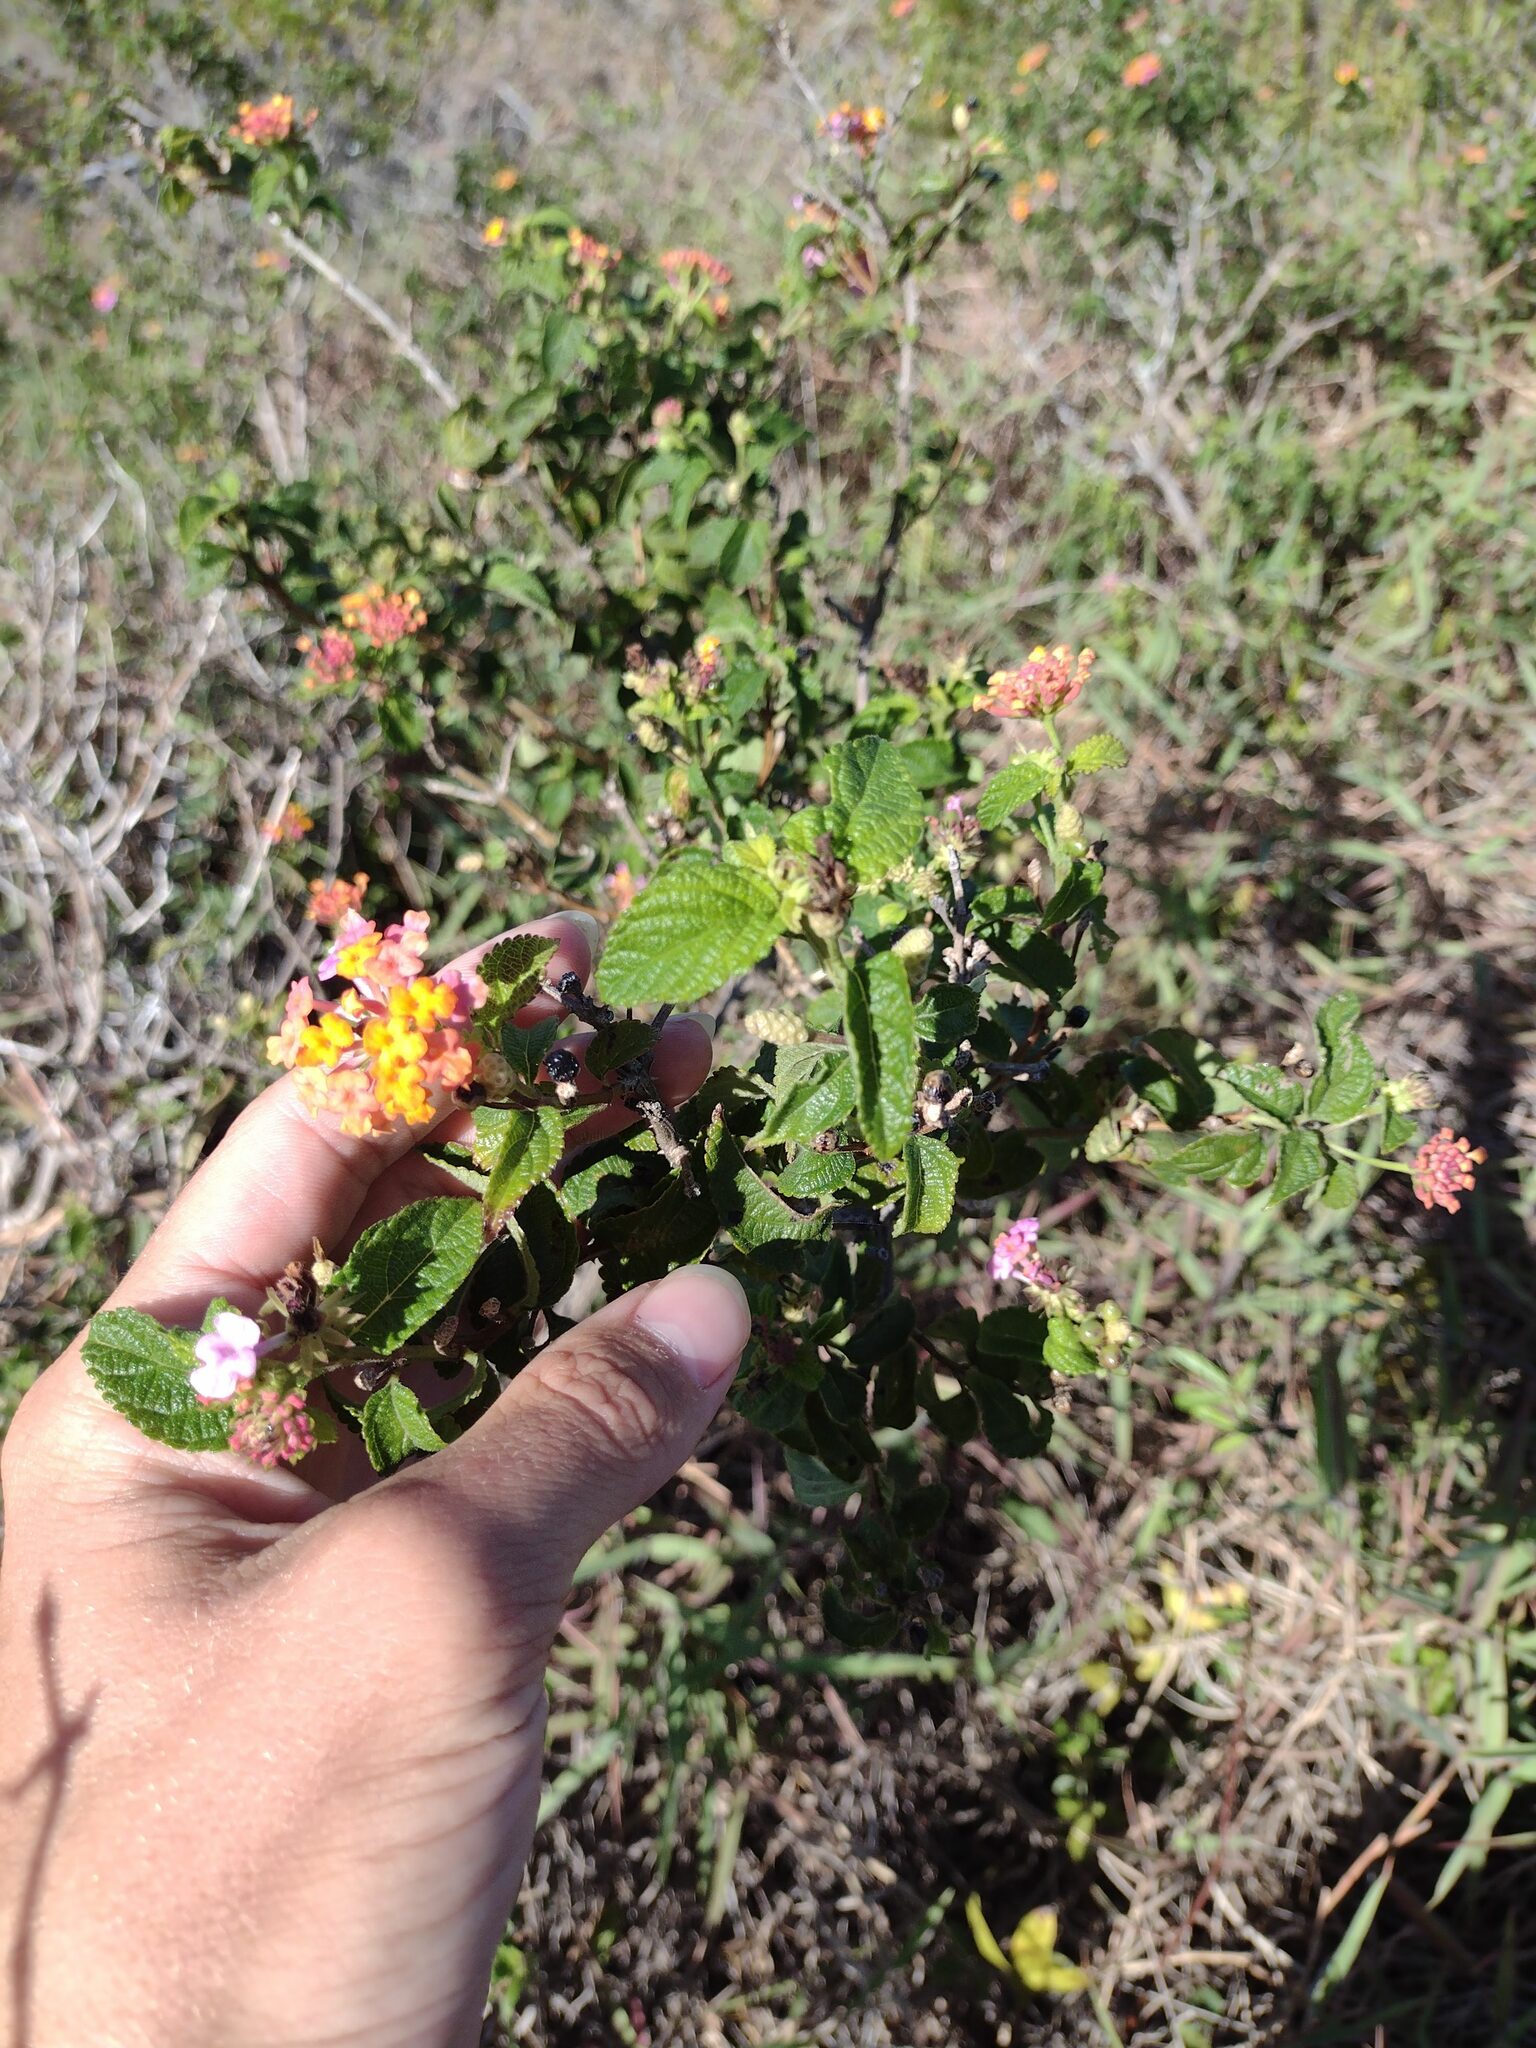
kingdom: Plantae
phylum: Tracheophyta
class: Magnoliopsida
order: Lamiales
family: Verbenaceae
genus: Lantana
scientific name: Lantana camara
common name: Lantana
